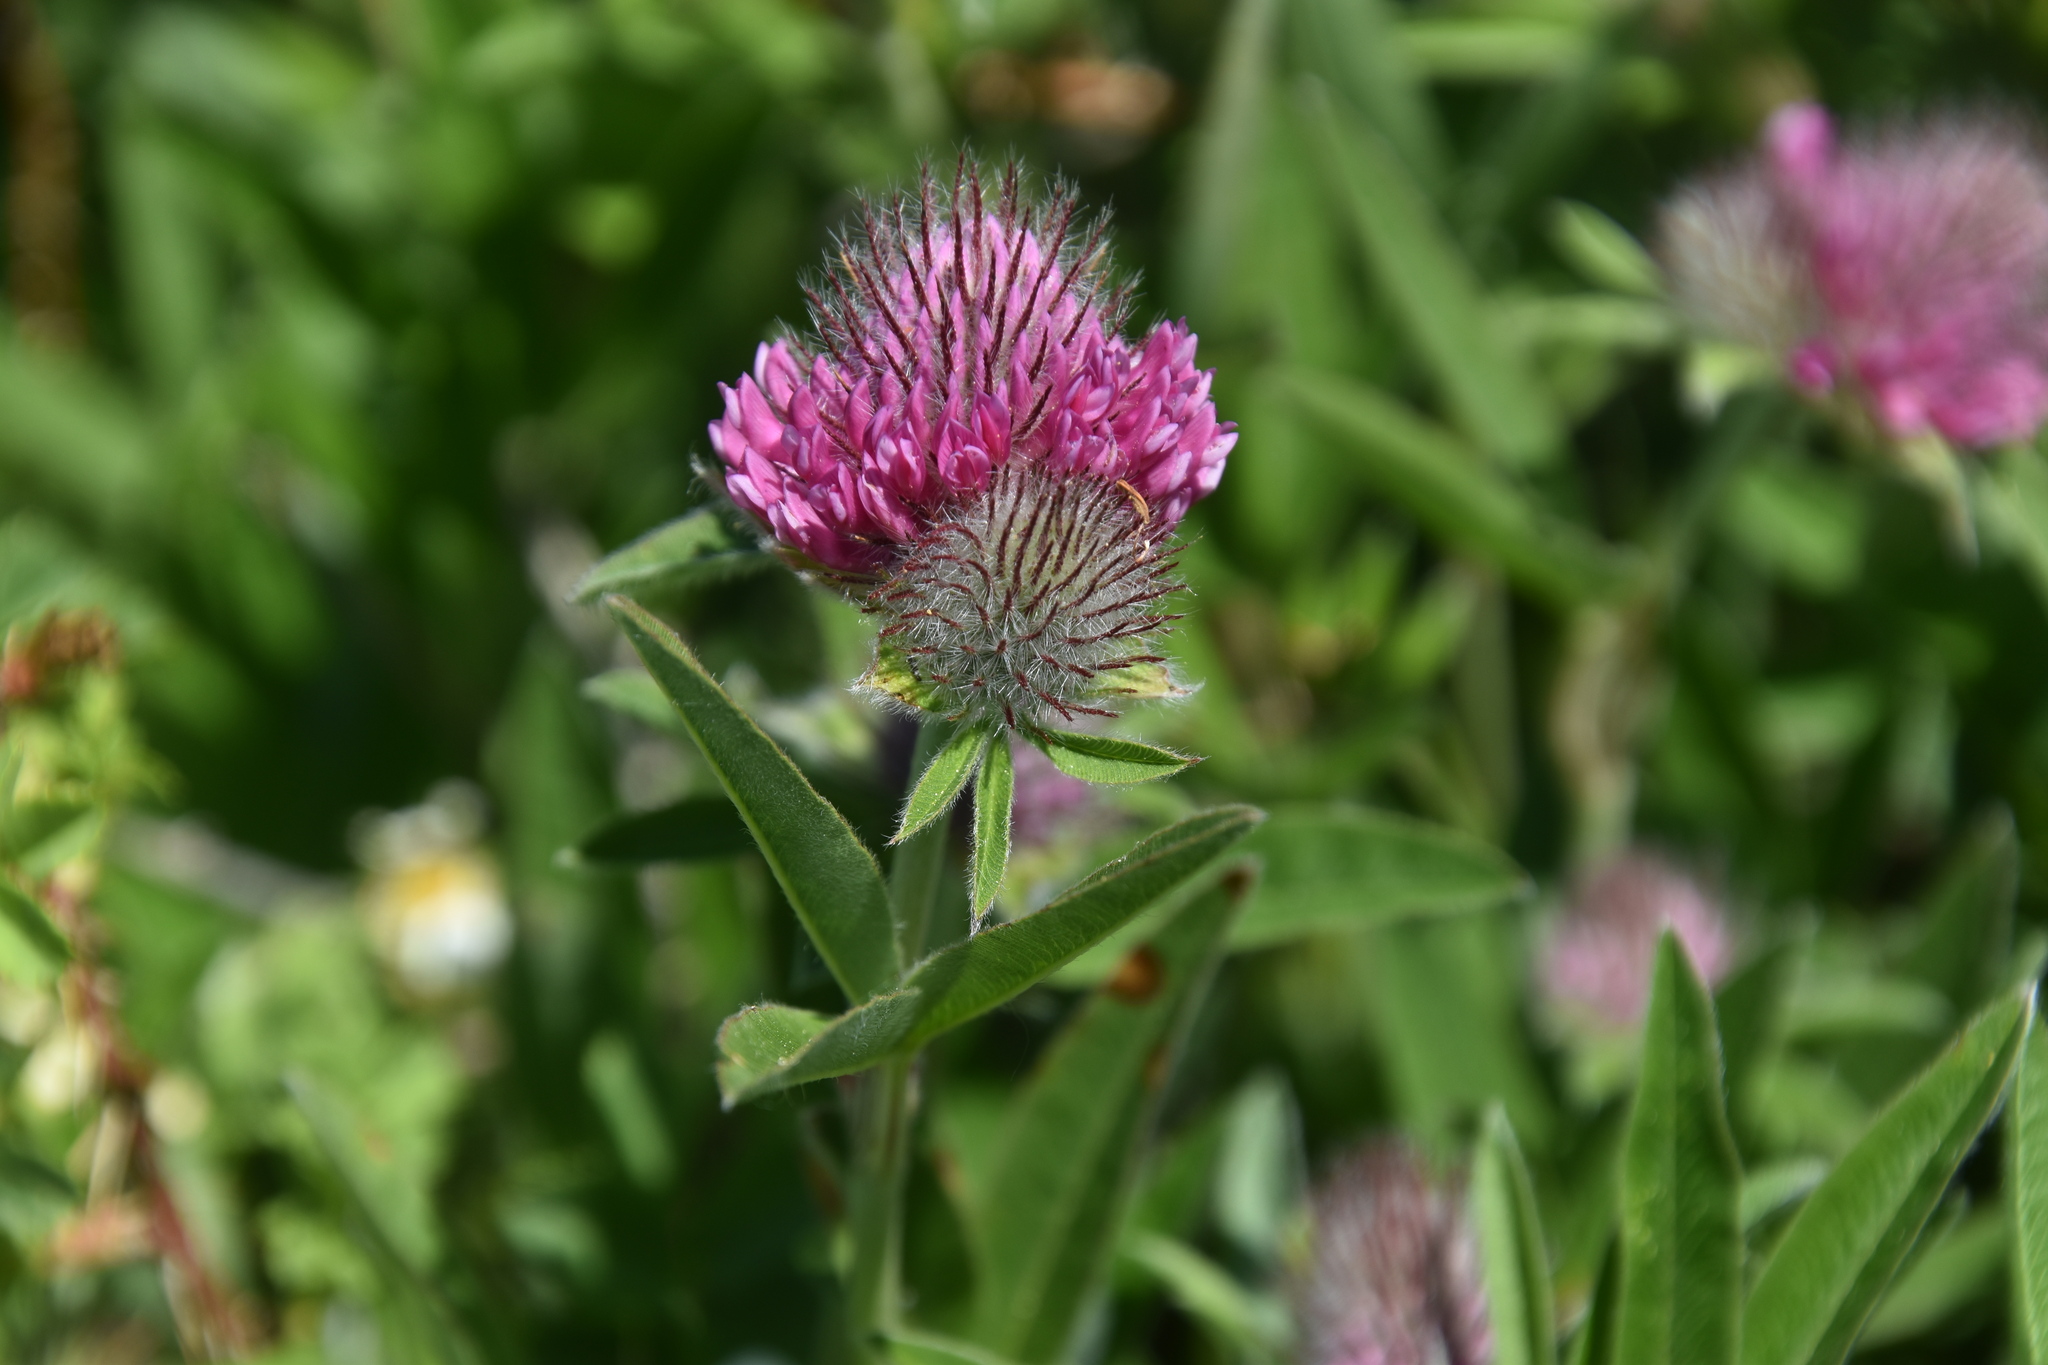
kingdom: Plantae
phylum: Tracheophyta
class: Magnoliopsida
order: Fabales
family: Fabaceae
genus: Trifolium
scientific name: Trifolium alpestre
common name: Owl-head clover
